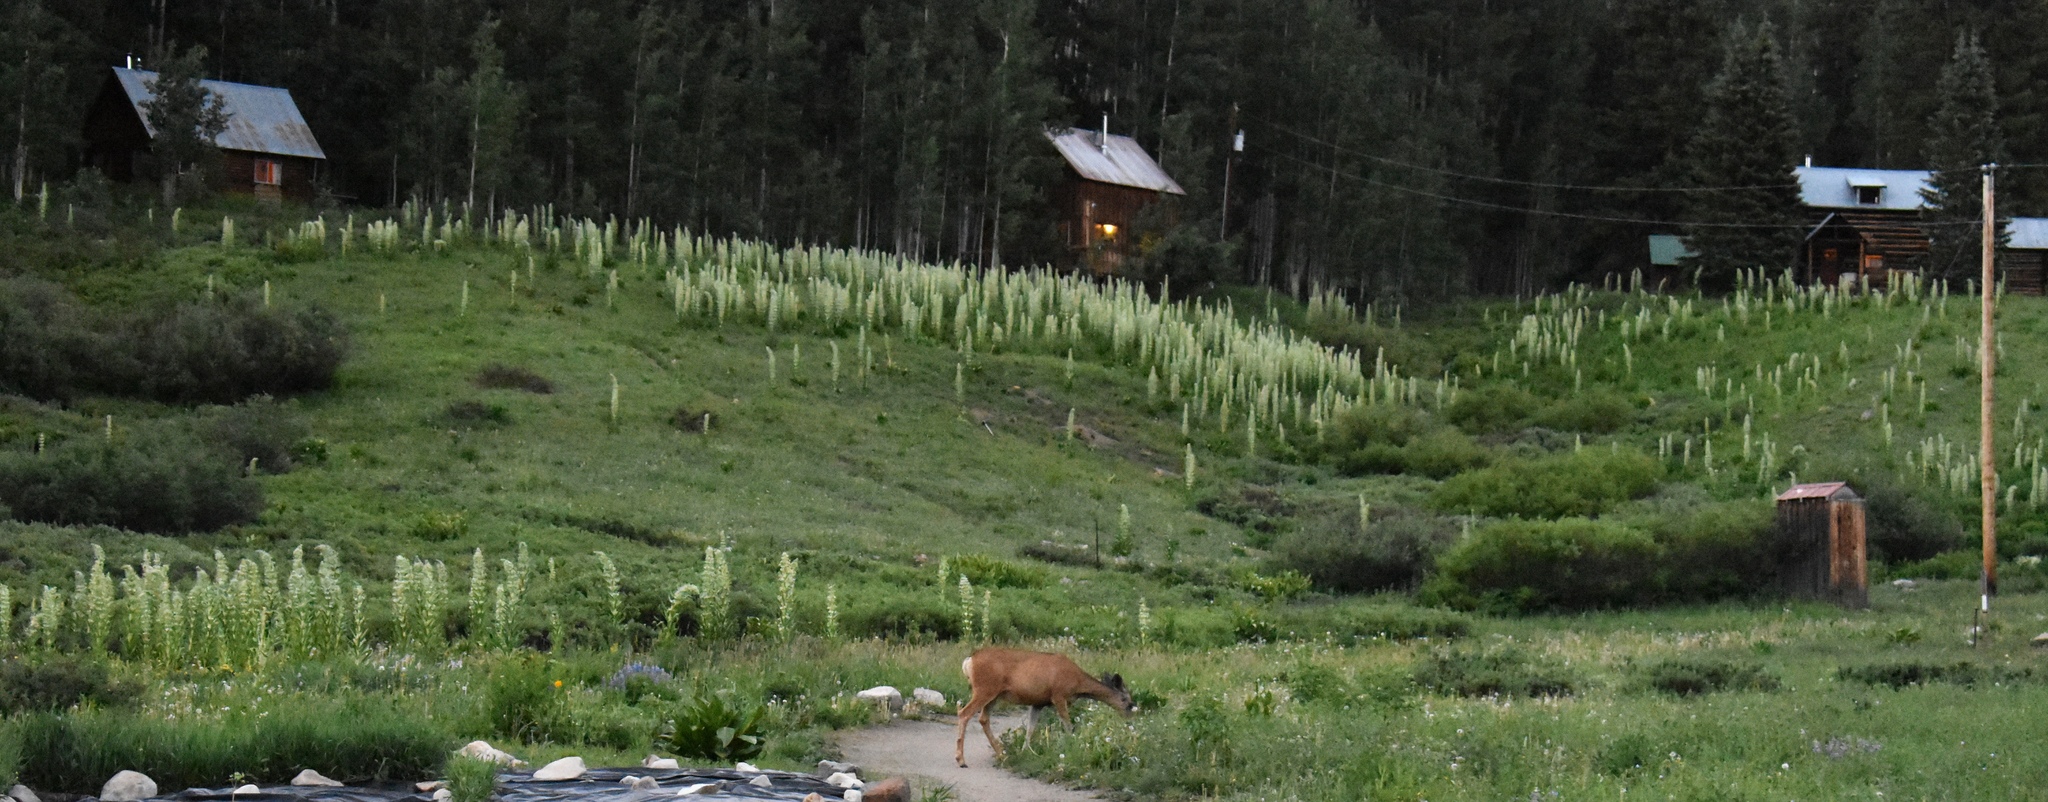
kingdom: Animalia
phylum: Chordata
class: Mammalia
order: Artiodactyla
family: Cervidae
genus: Odocoileus
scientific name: Odocoileus hemionus
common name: Mule deer
